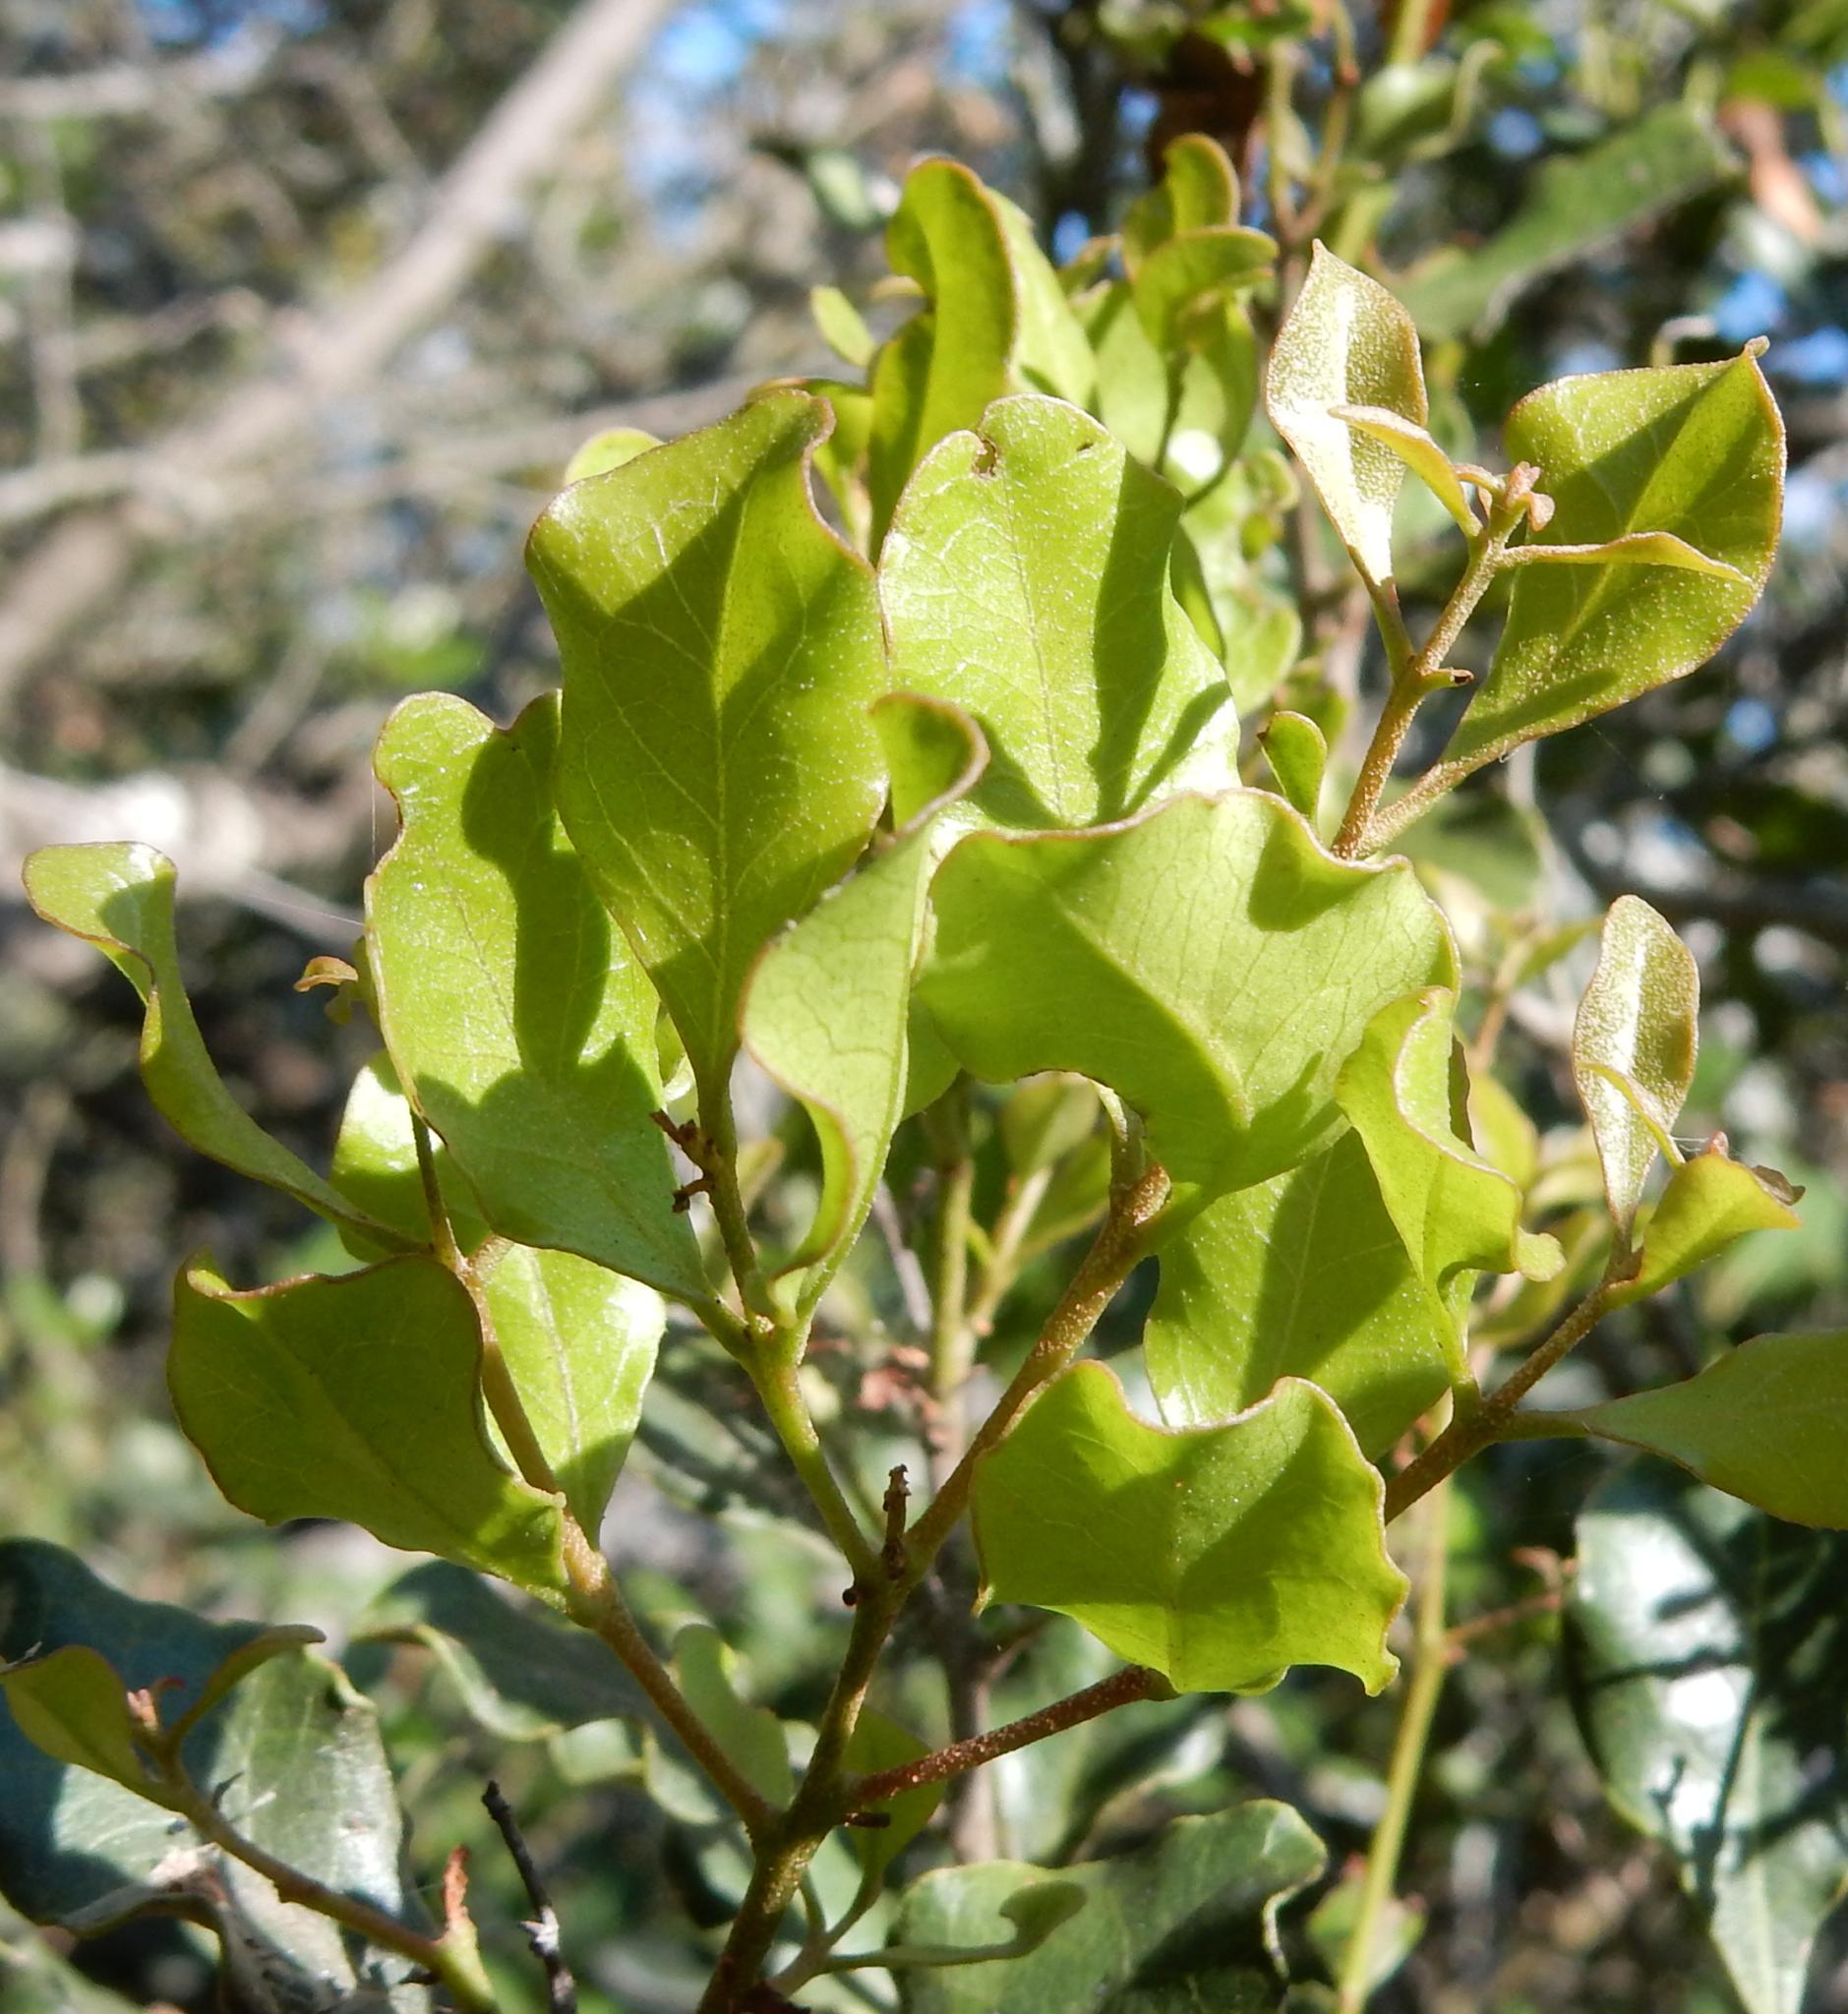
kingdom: Plantae
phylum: Tracheophyta
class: Magnoliopsida
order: Ericales
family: Ebenaceae
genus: Euclea
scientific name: Euclea undulata
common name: Small-leaved guarri
